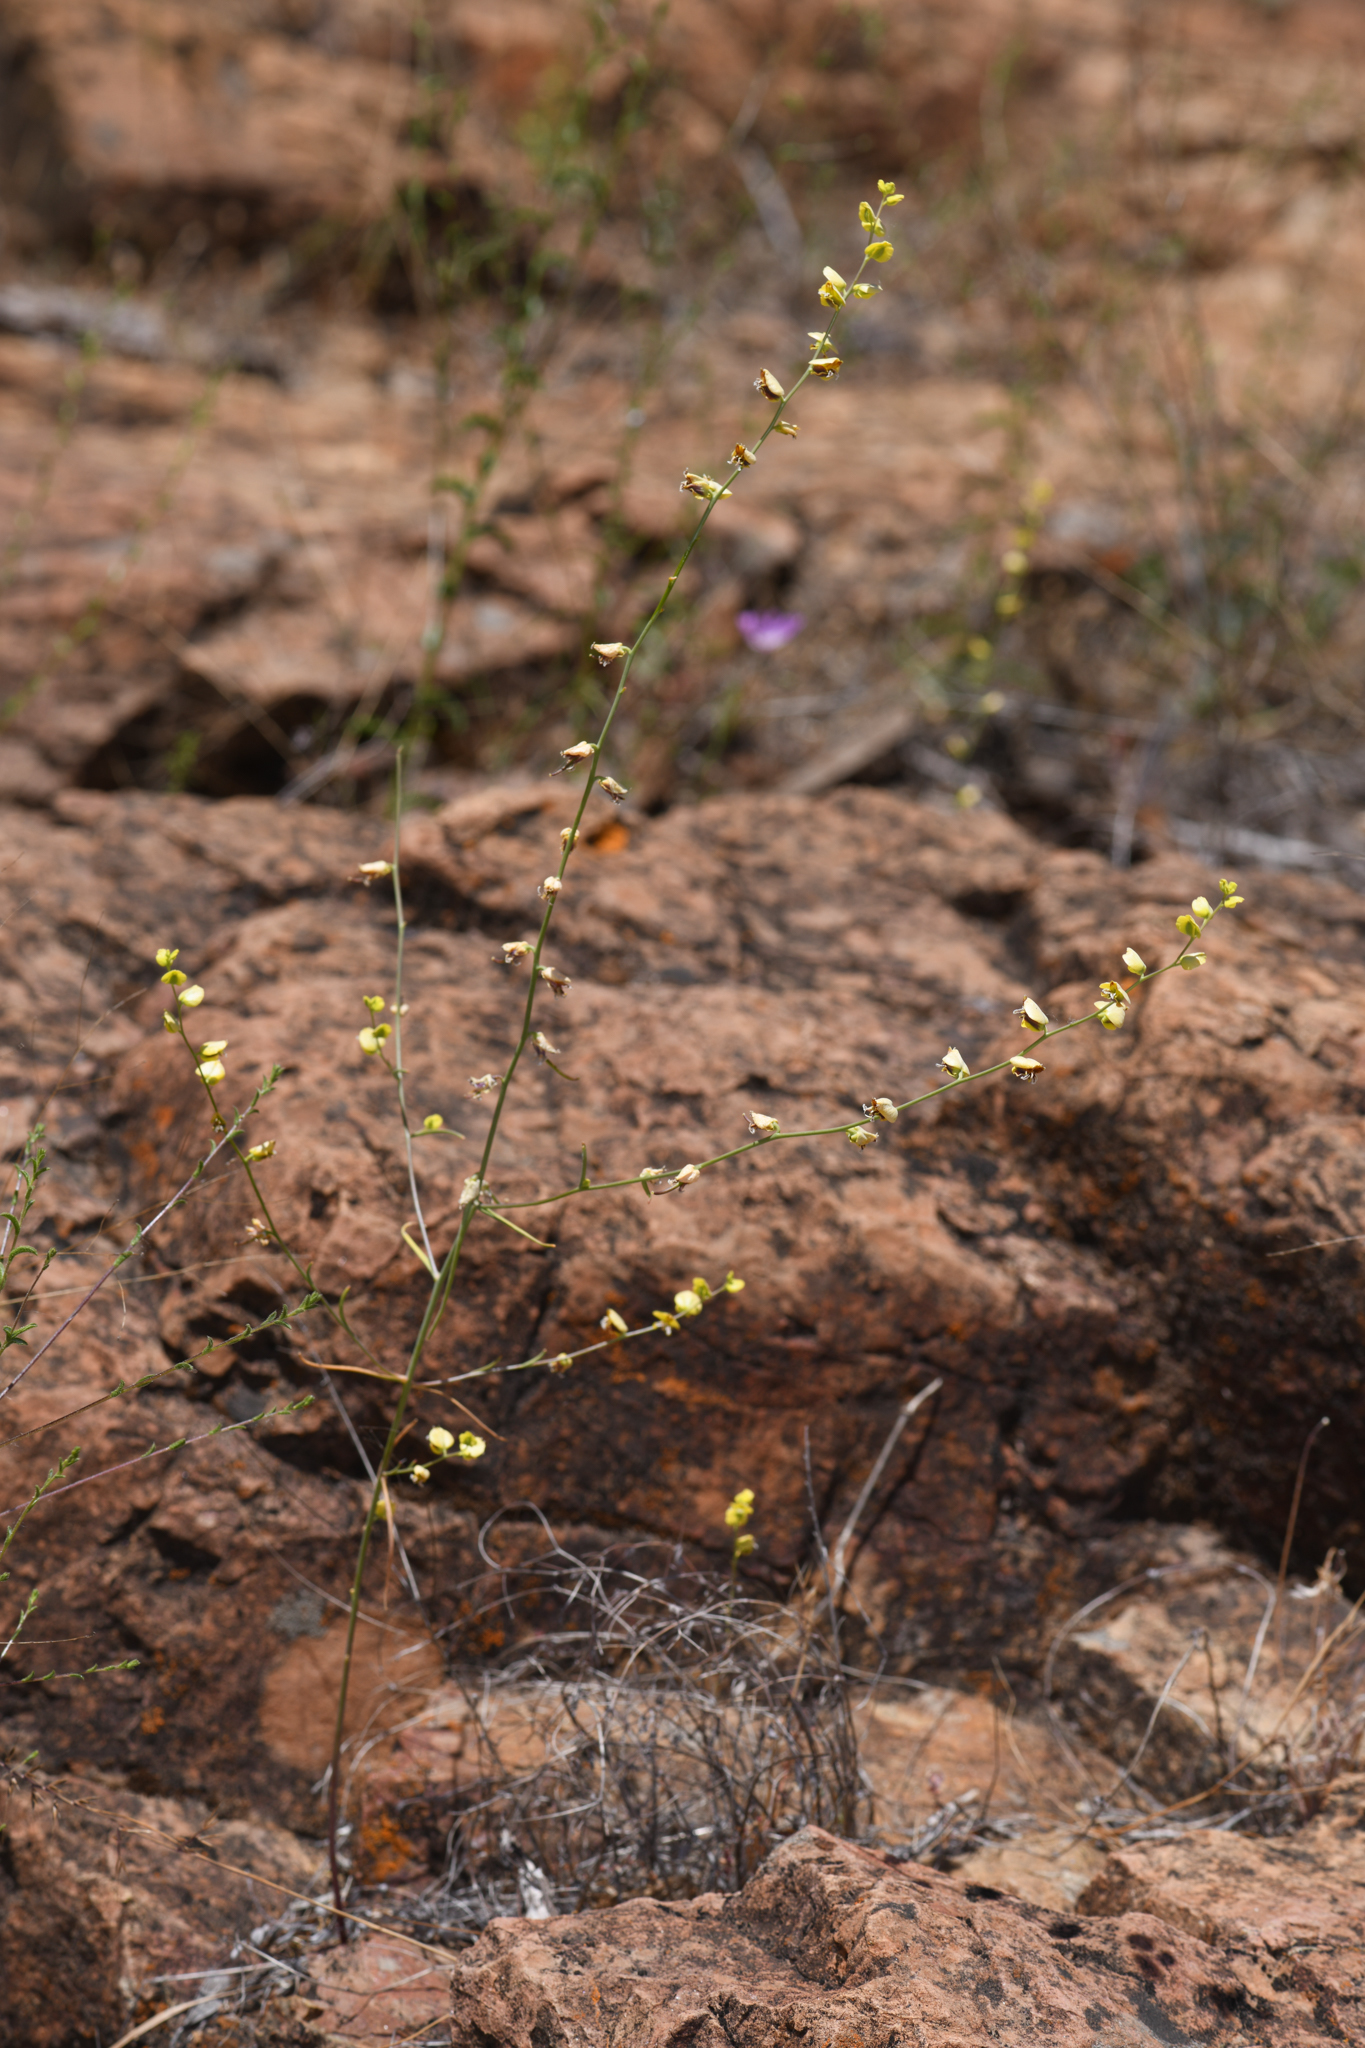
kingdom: Plantae
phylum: Tracheophyta
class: Magnoliopsida
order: Brassicales
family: Brassicaceae
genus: Streptanthus
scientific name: Streptanthus polygaloides
